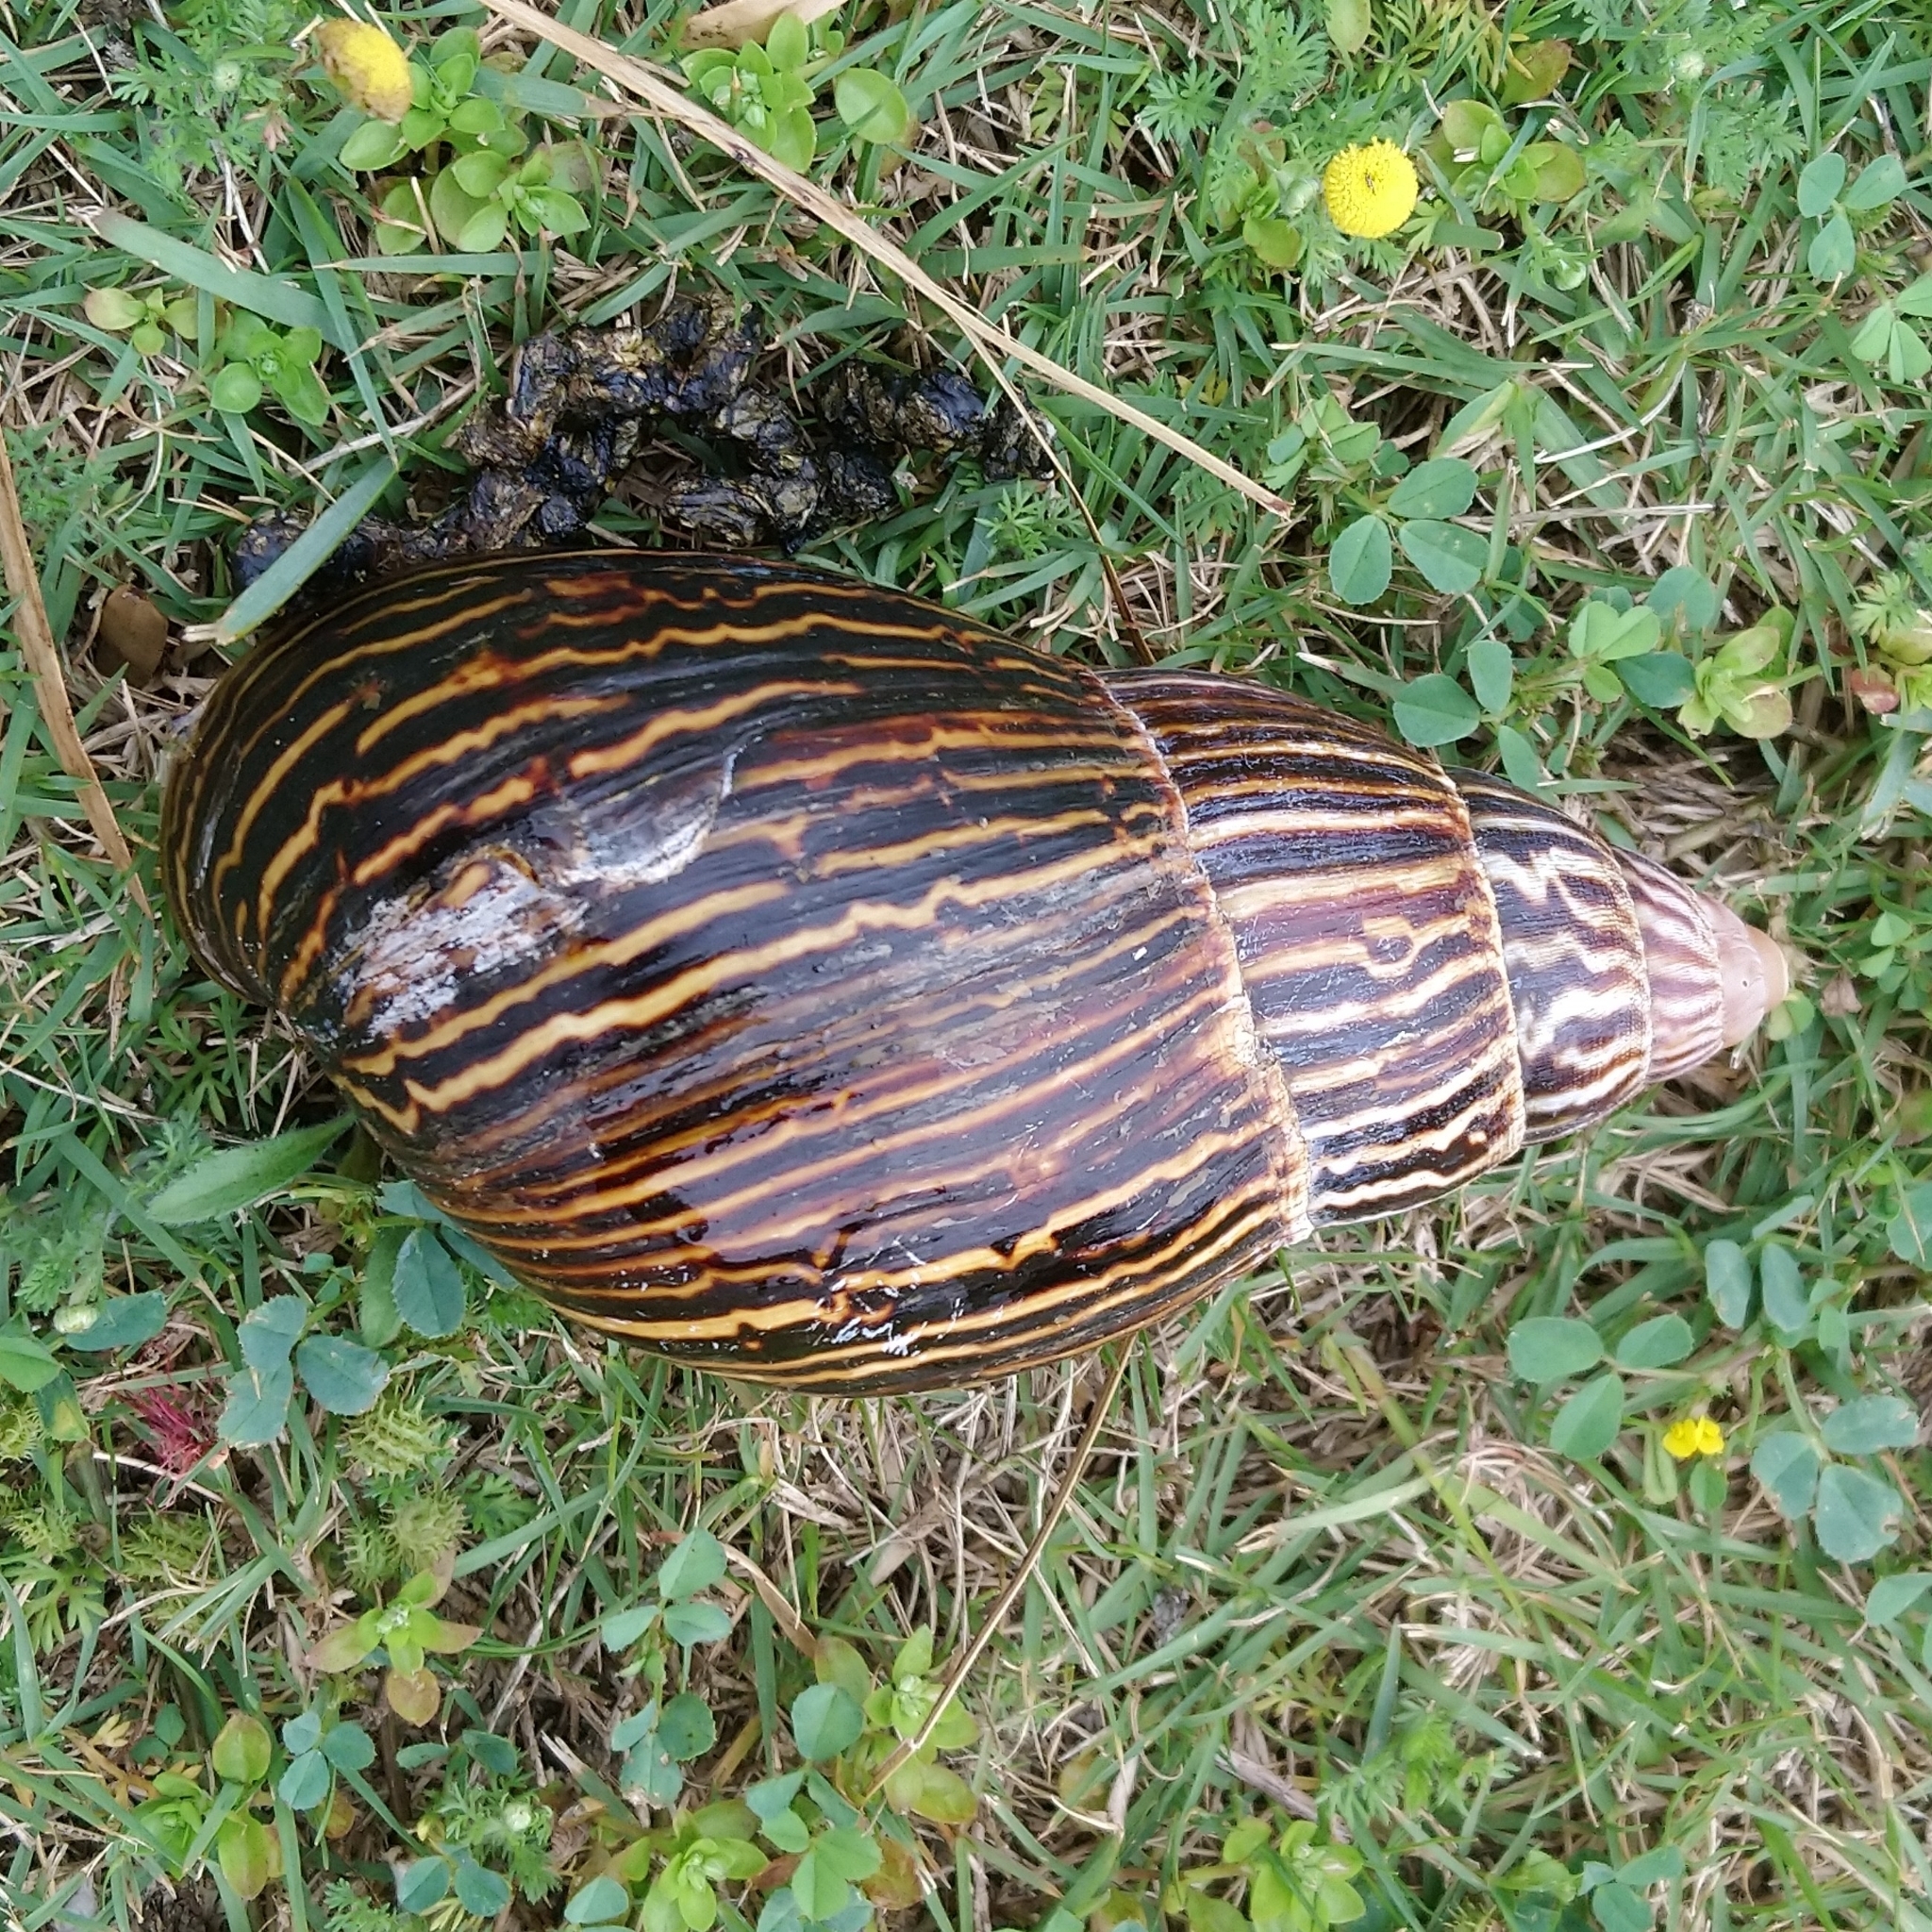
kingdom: Animalia
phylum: Mollusca
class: Gastropoda
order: Stylommatophora
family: Achatinidae
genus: Cochlitoma
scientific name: Cochlitoma zebra
